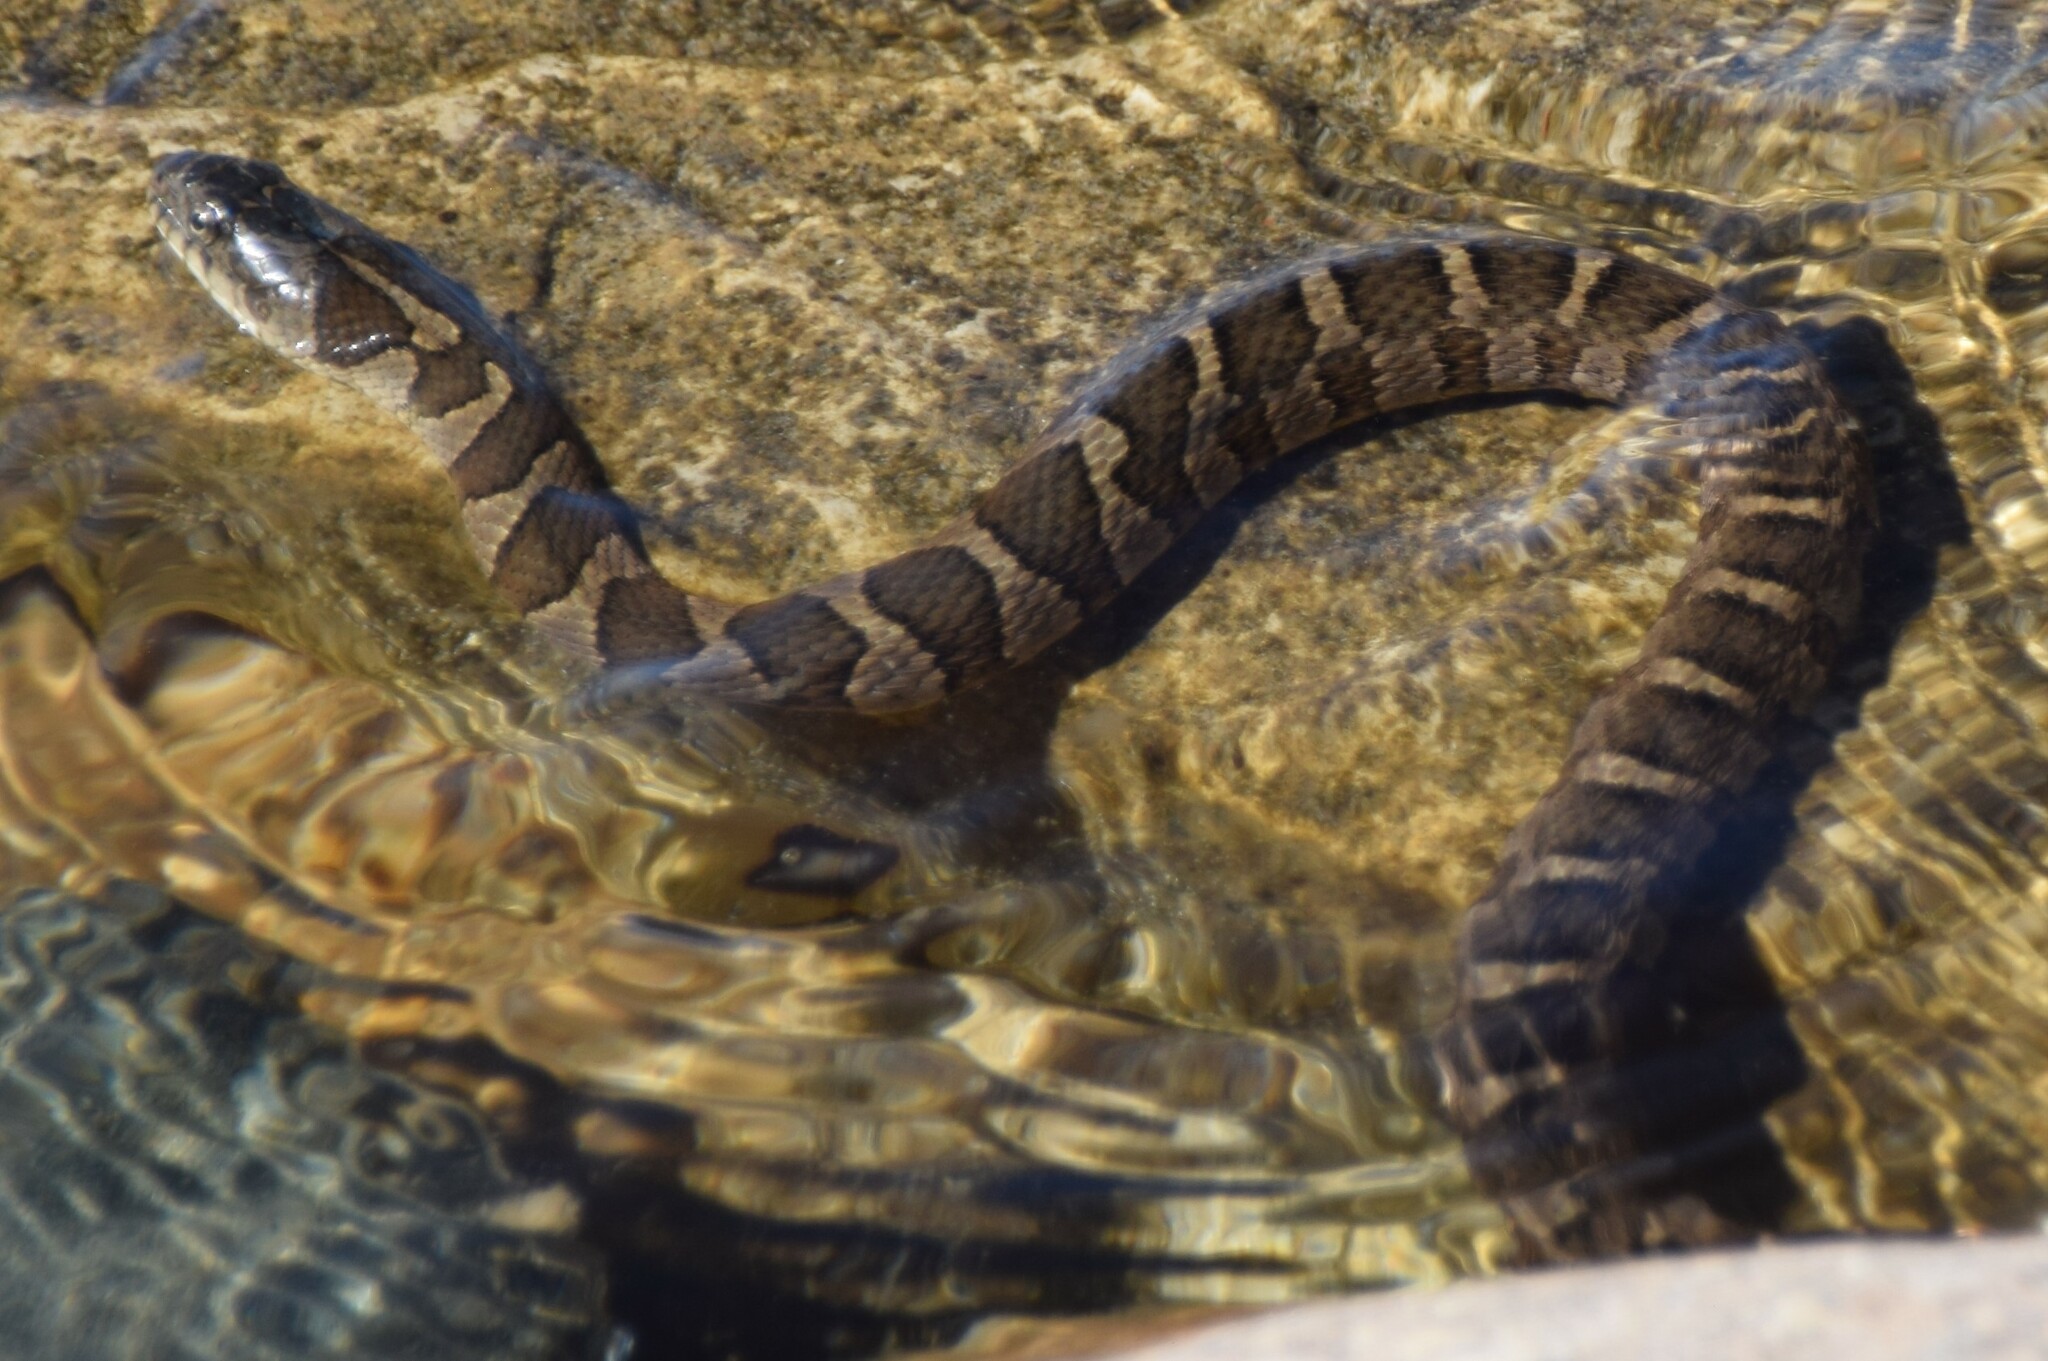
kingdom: Animalia
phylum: Chordata
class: Squamata
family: Colubridae
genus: Nerodia
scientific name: Nerodia sipedon
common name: Northern water snake
